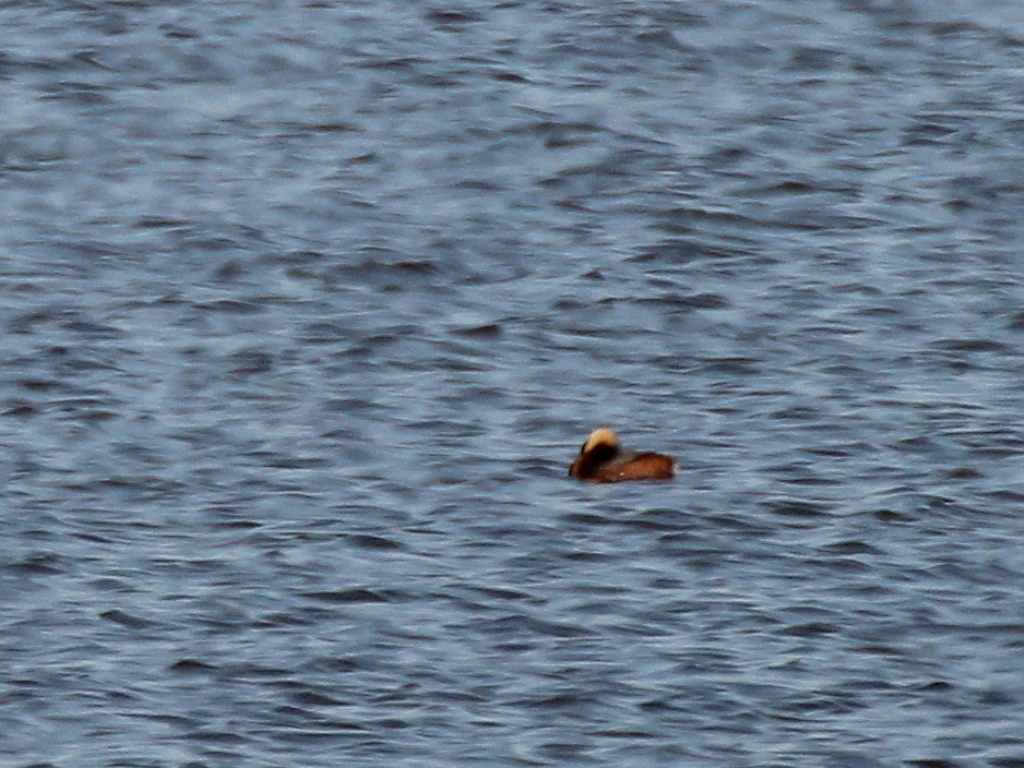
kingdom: Animalia
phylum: Chordata
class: Aves
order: Podicipediformes
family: Podicipedidae
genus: Podiceps
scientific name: Podiceps auritus
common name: Horned grebe
